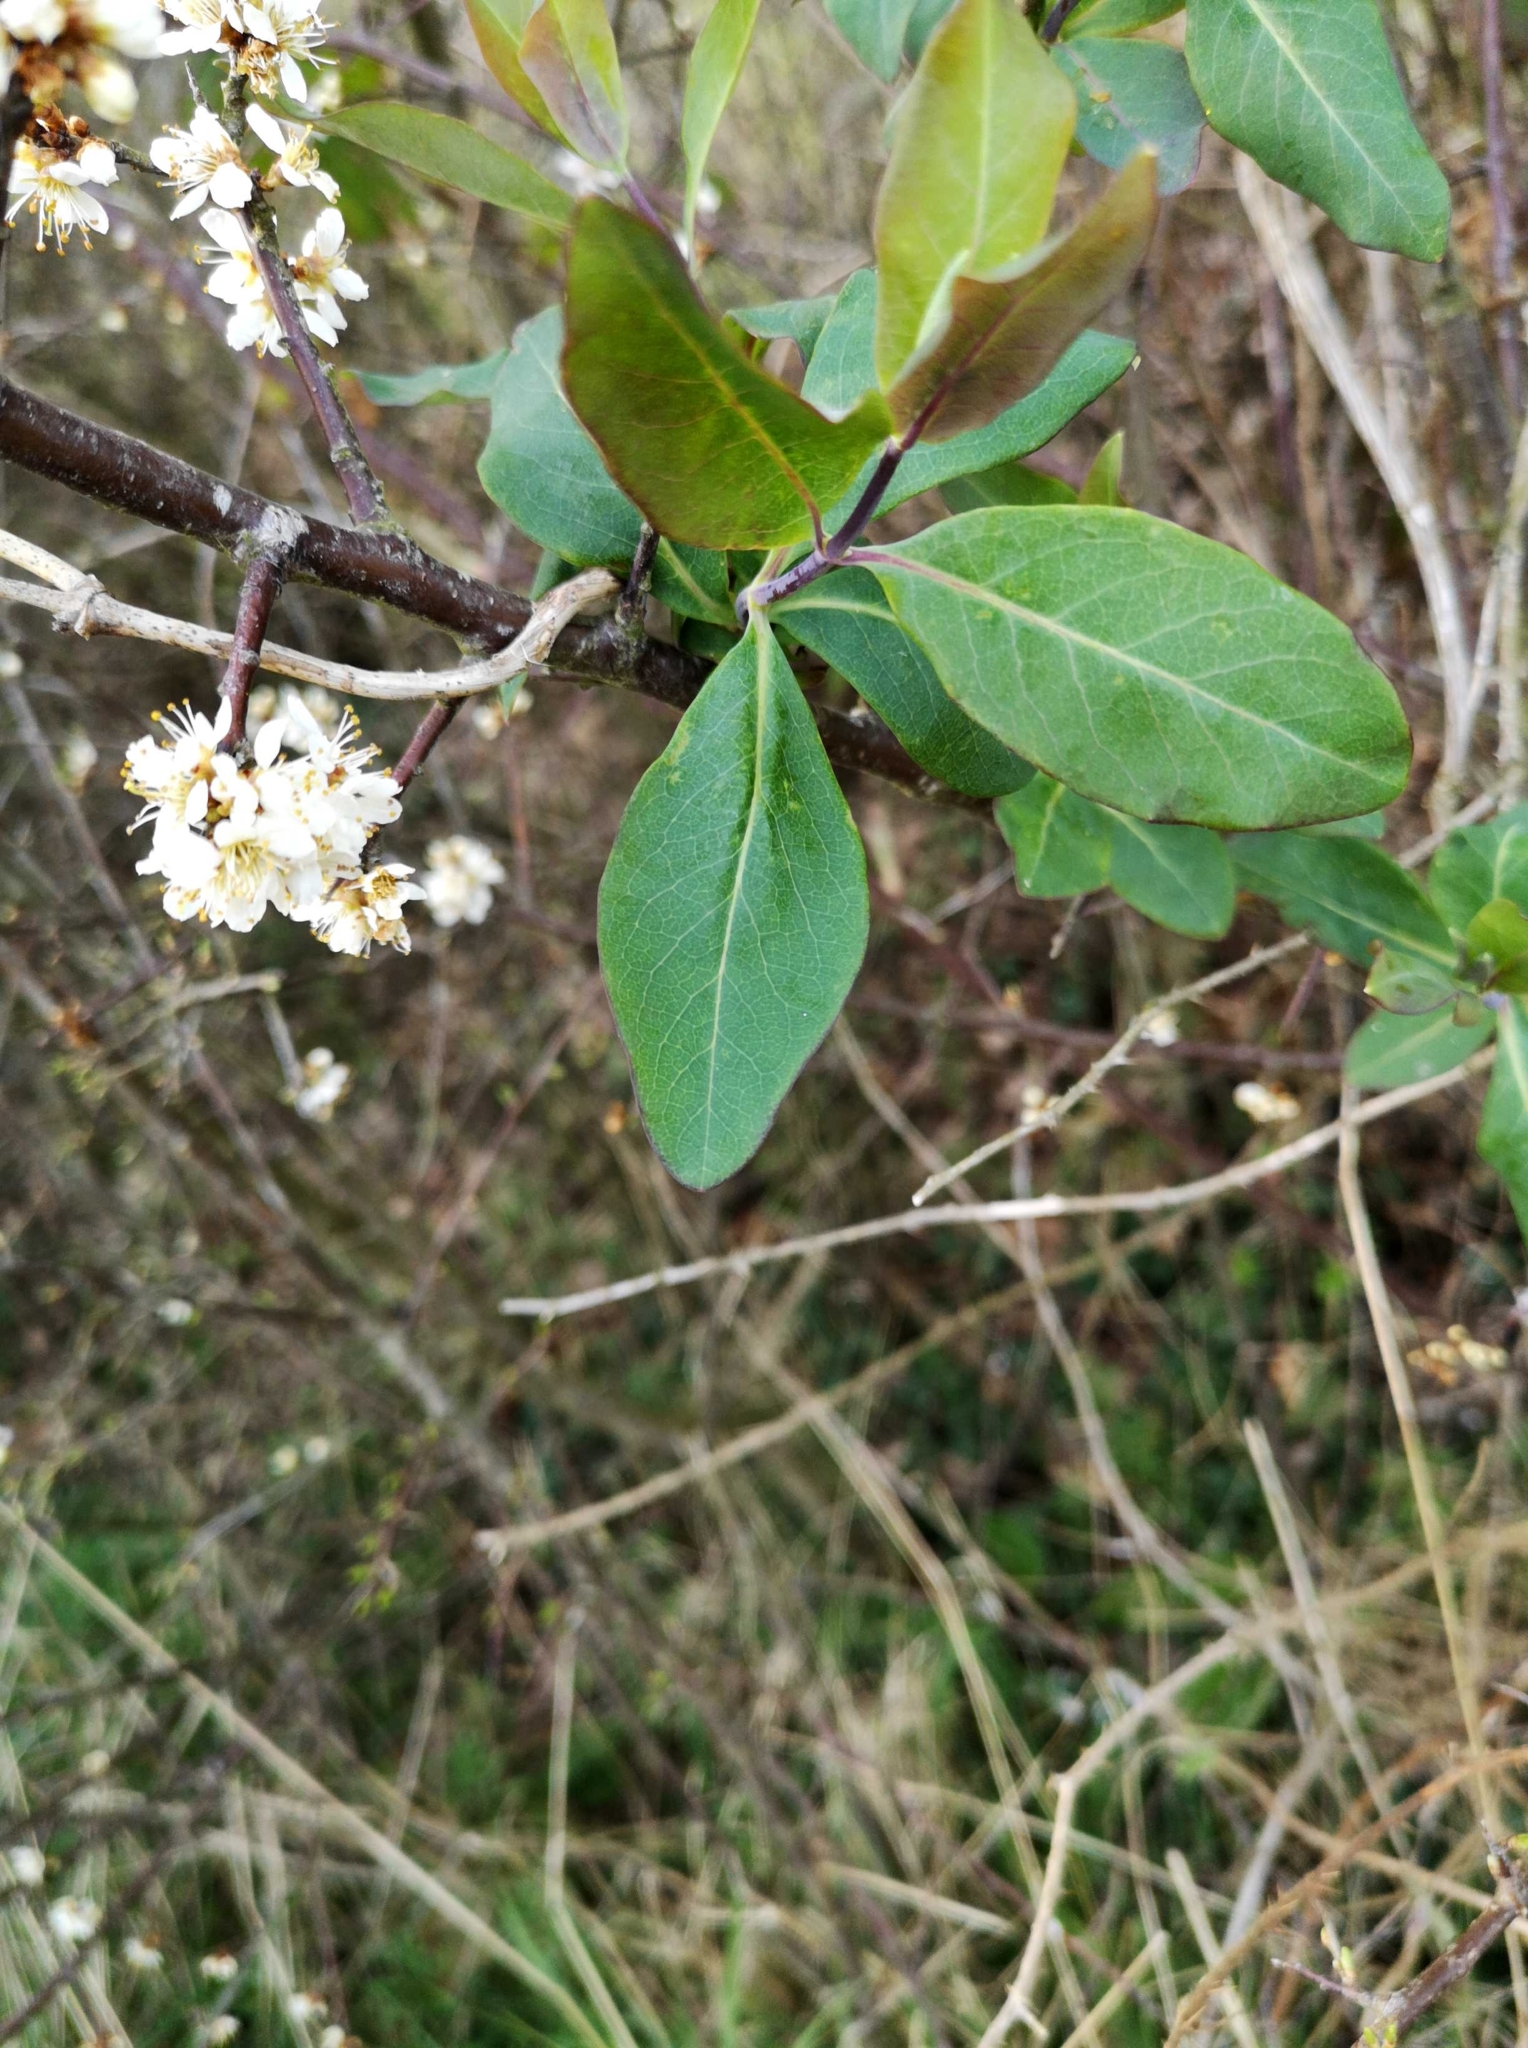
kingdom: Plantae
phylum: Tracheophyta
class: Magnoliopsida
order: Dipsacales
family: Caprifoliaceae
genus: Lonicera
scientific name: Lonicera periclymenum
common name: European honeysuckle
